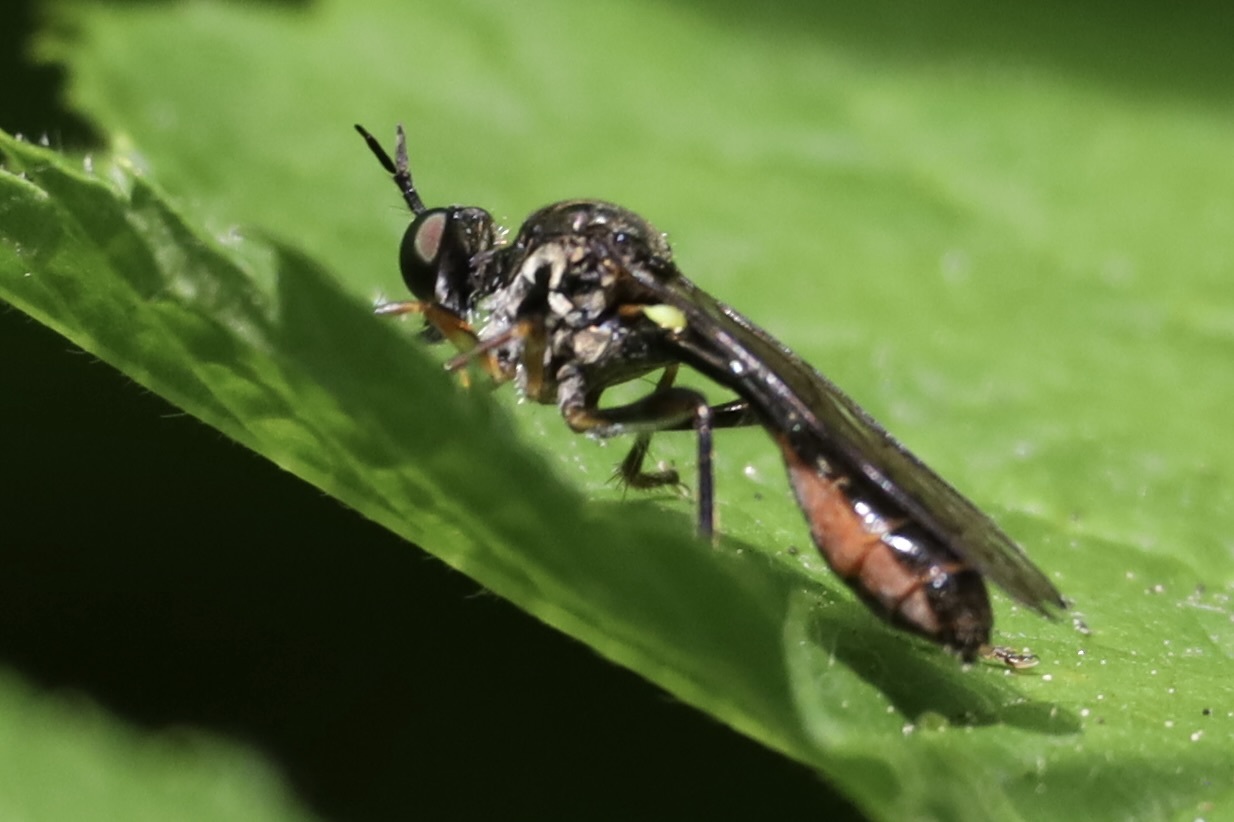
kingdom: Animalia
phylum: Arthropoda
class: Insecta
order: Diptera
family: Asilidae
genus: Dioctria
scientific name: Dioctria hyalipennis
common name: Stripe-legged robberfly
